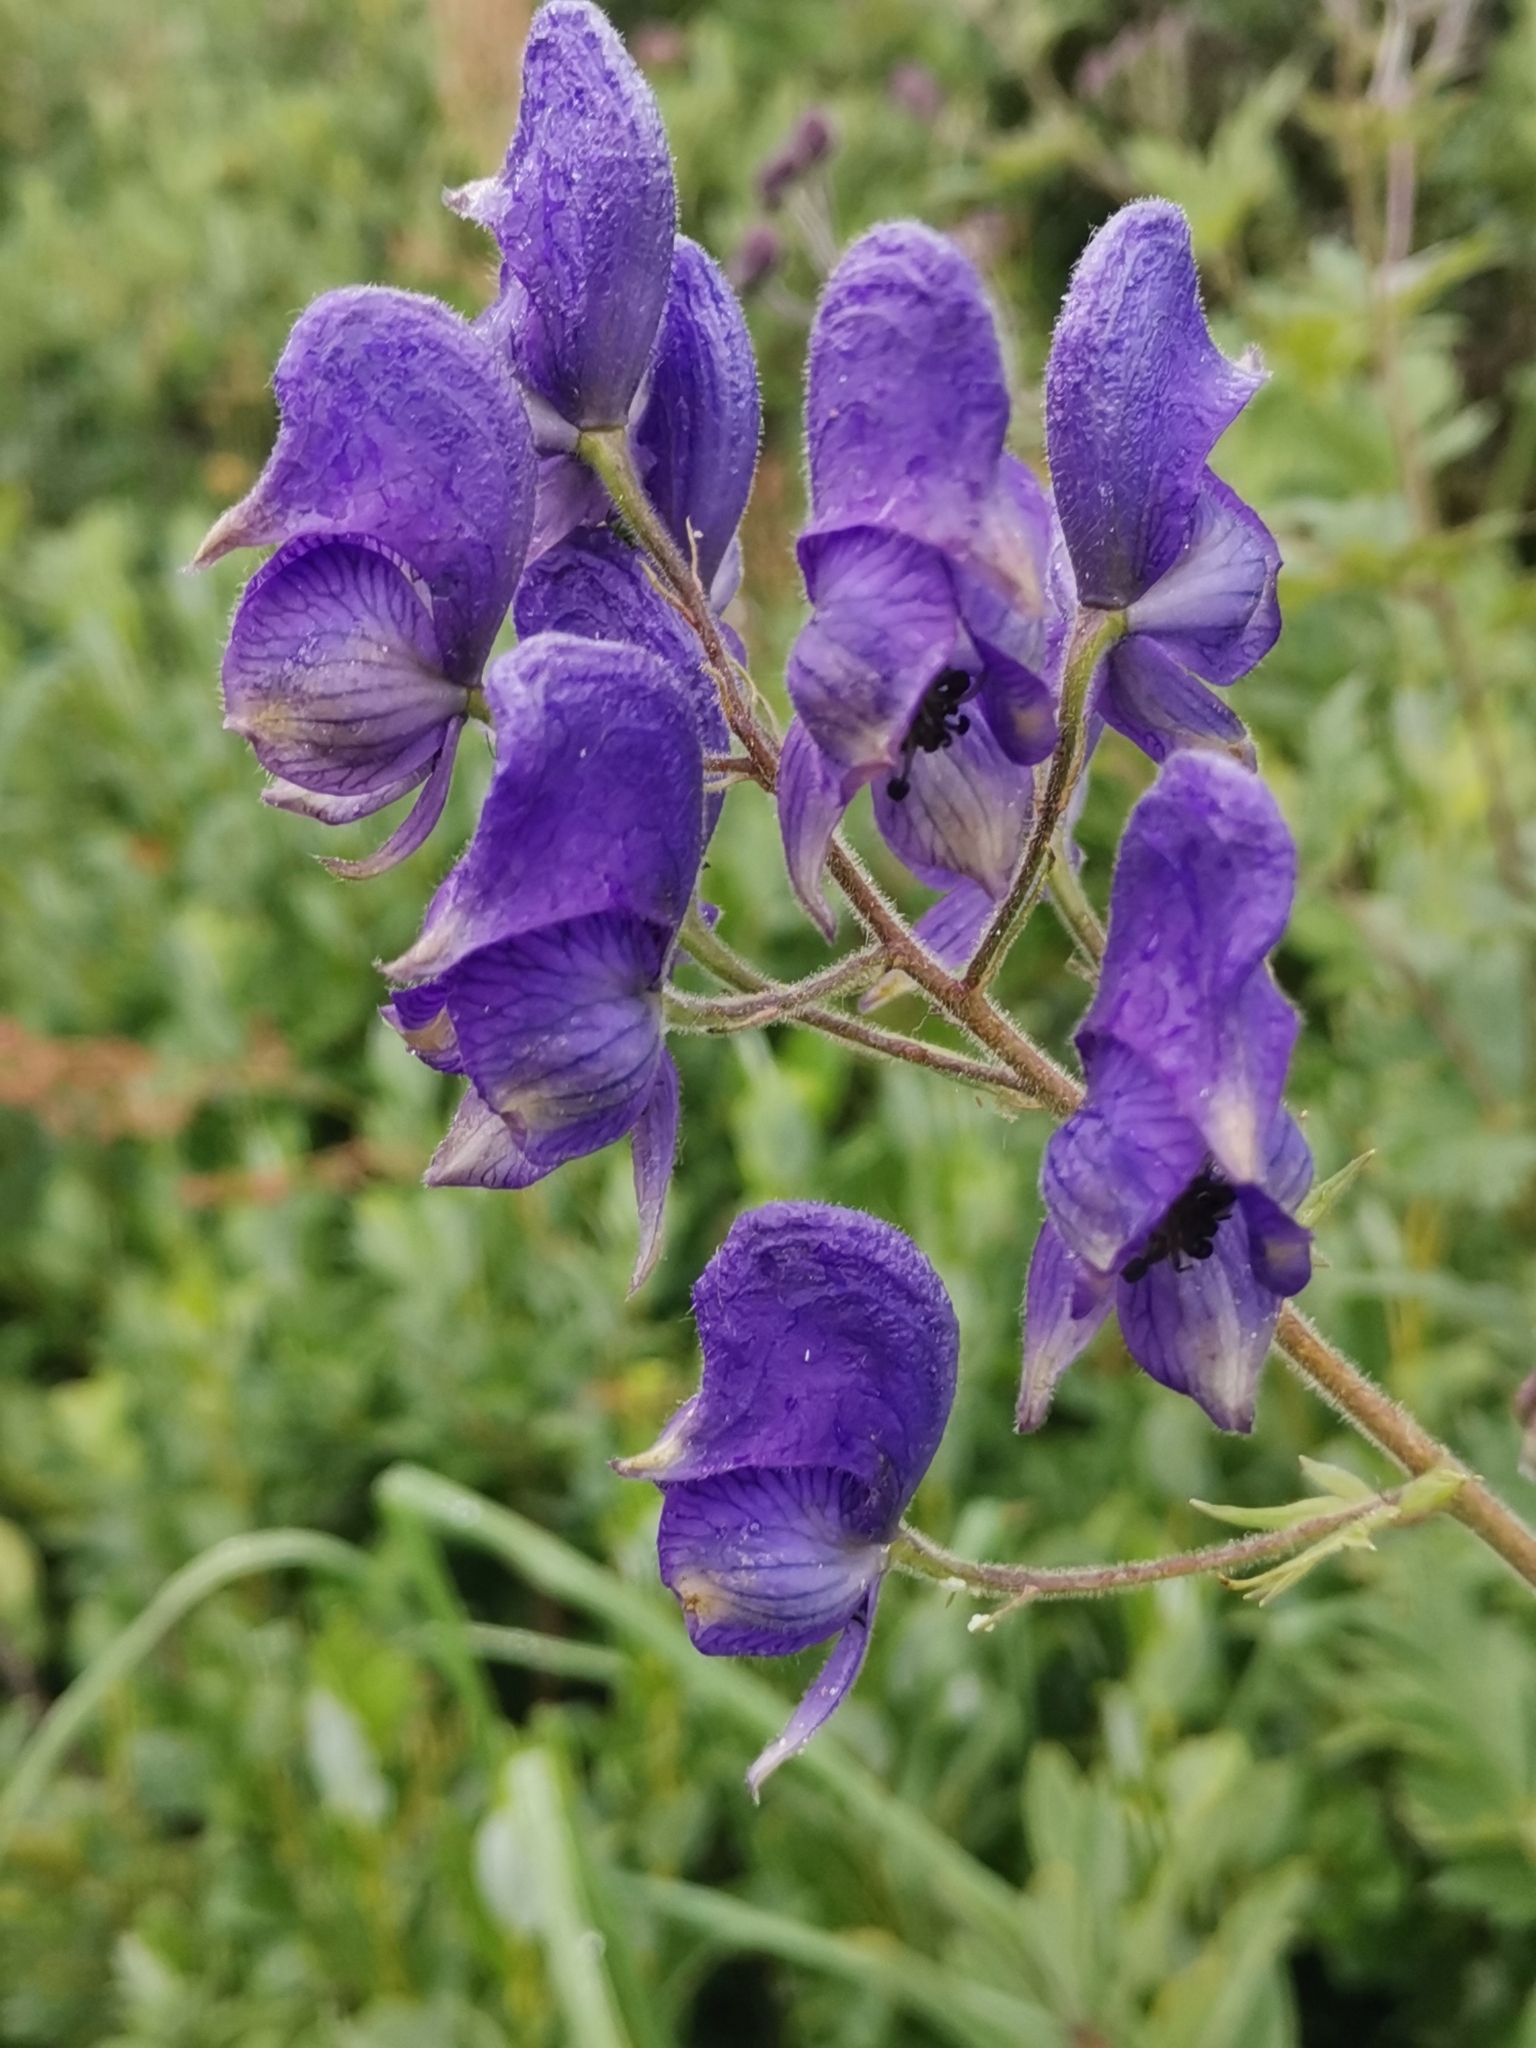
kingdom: Plantae
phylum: Tracheophyta
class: Magnoliopsida
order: Ranunculales
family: Ranunculaceae
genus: Aconitum
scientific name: Aconitum degenii
